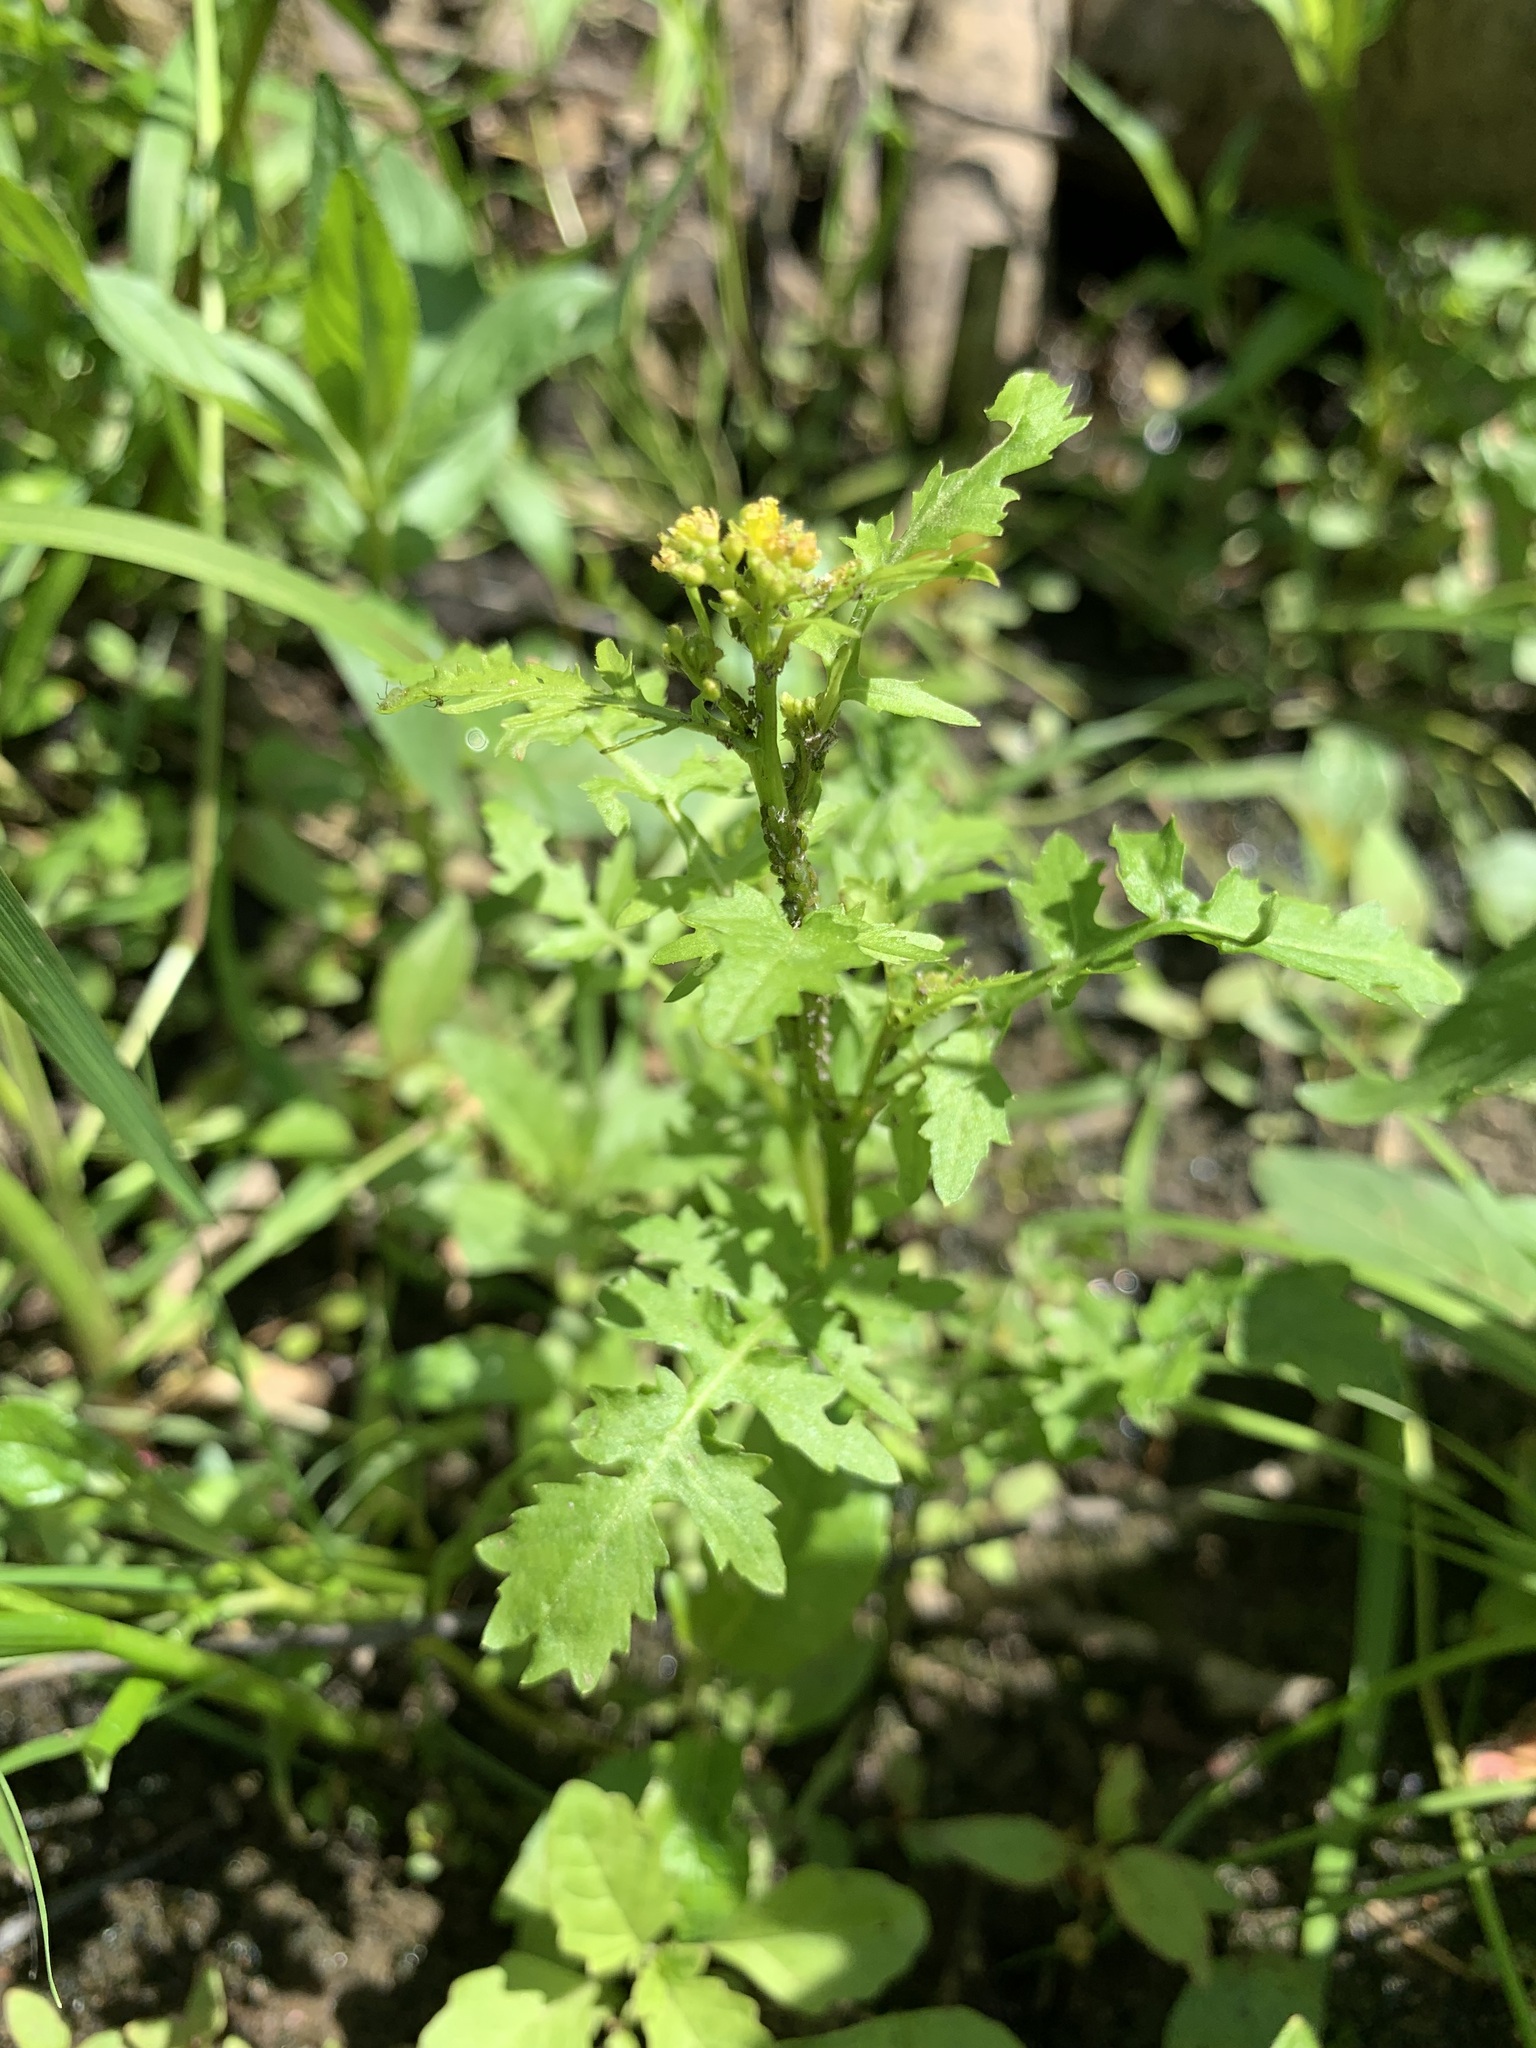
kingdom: Plantae
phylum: Tracheophyta
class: Magnoliopsida
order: Brassicales
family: Brassicaceae
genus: Rorippa
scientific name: Rorippa palustris
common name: Marsh yellow-cress
